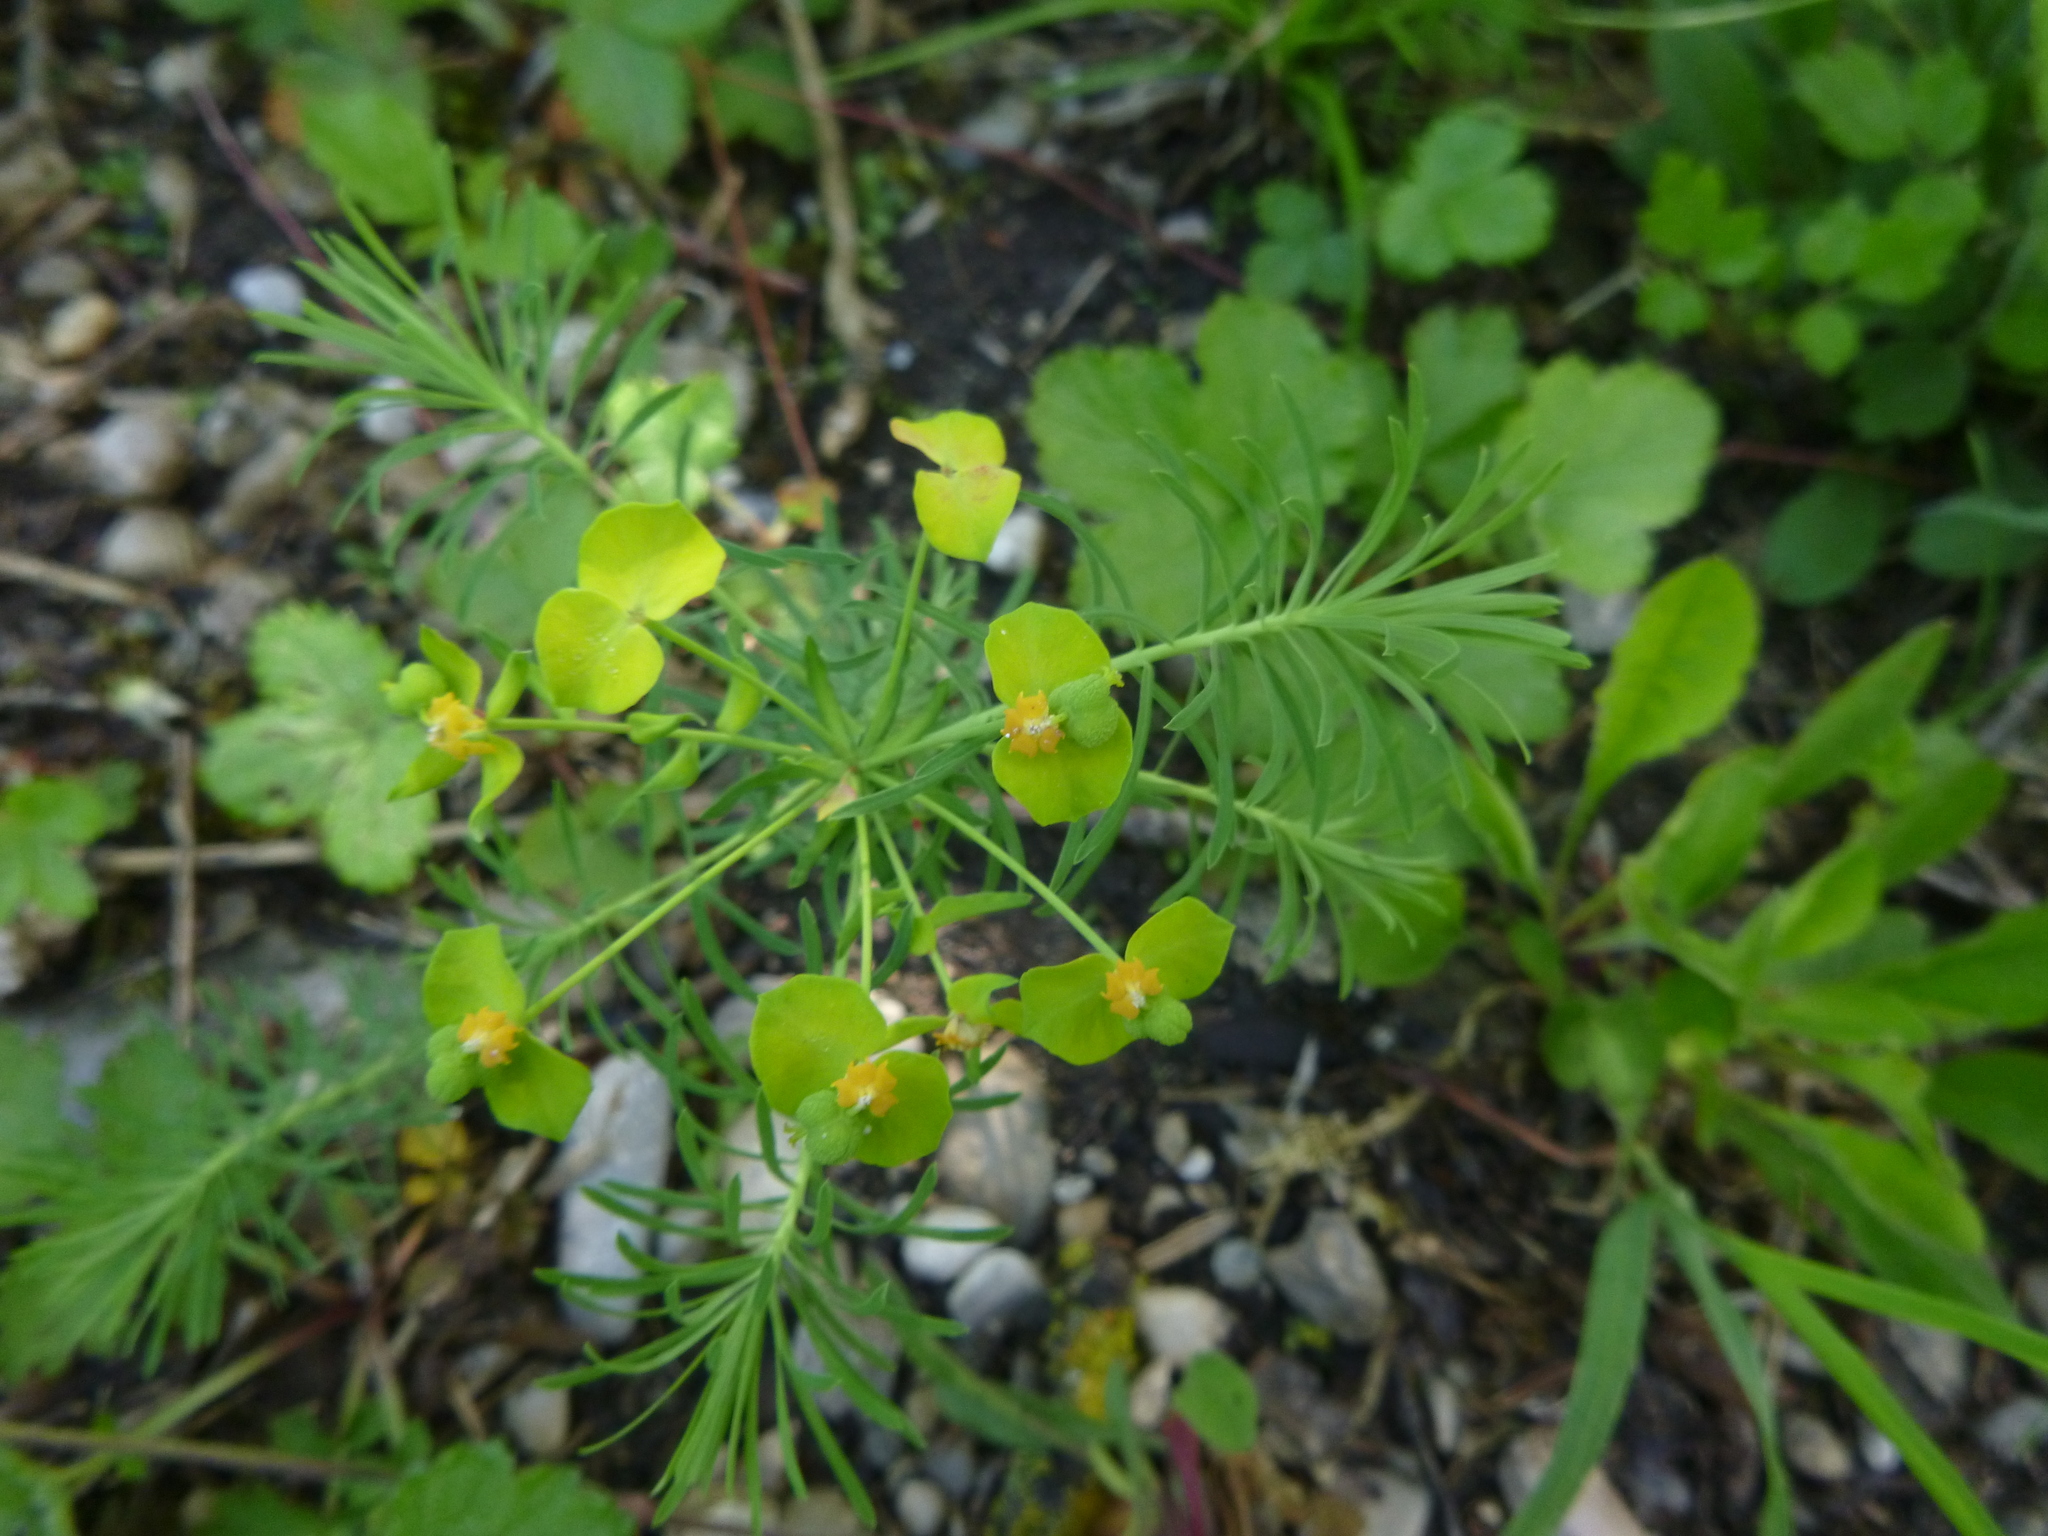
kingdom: Plantae
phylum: Tracheophyta
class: Magnoliopsida
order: Malpighiales
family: Euphorbiaceae
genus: Euphorbia
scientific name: Euphorbia cyparissias
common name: Cypress spurge
